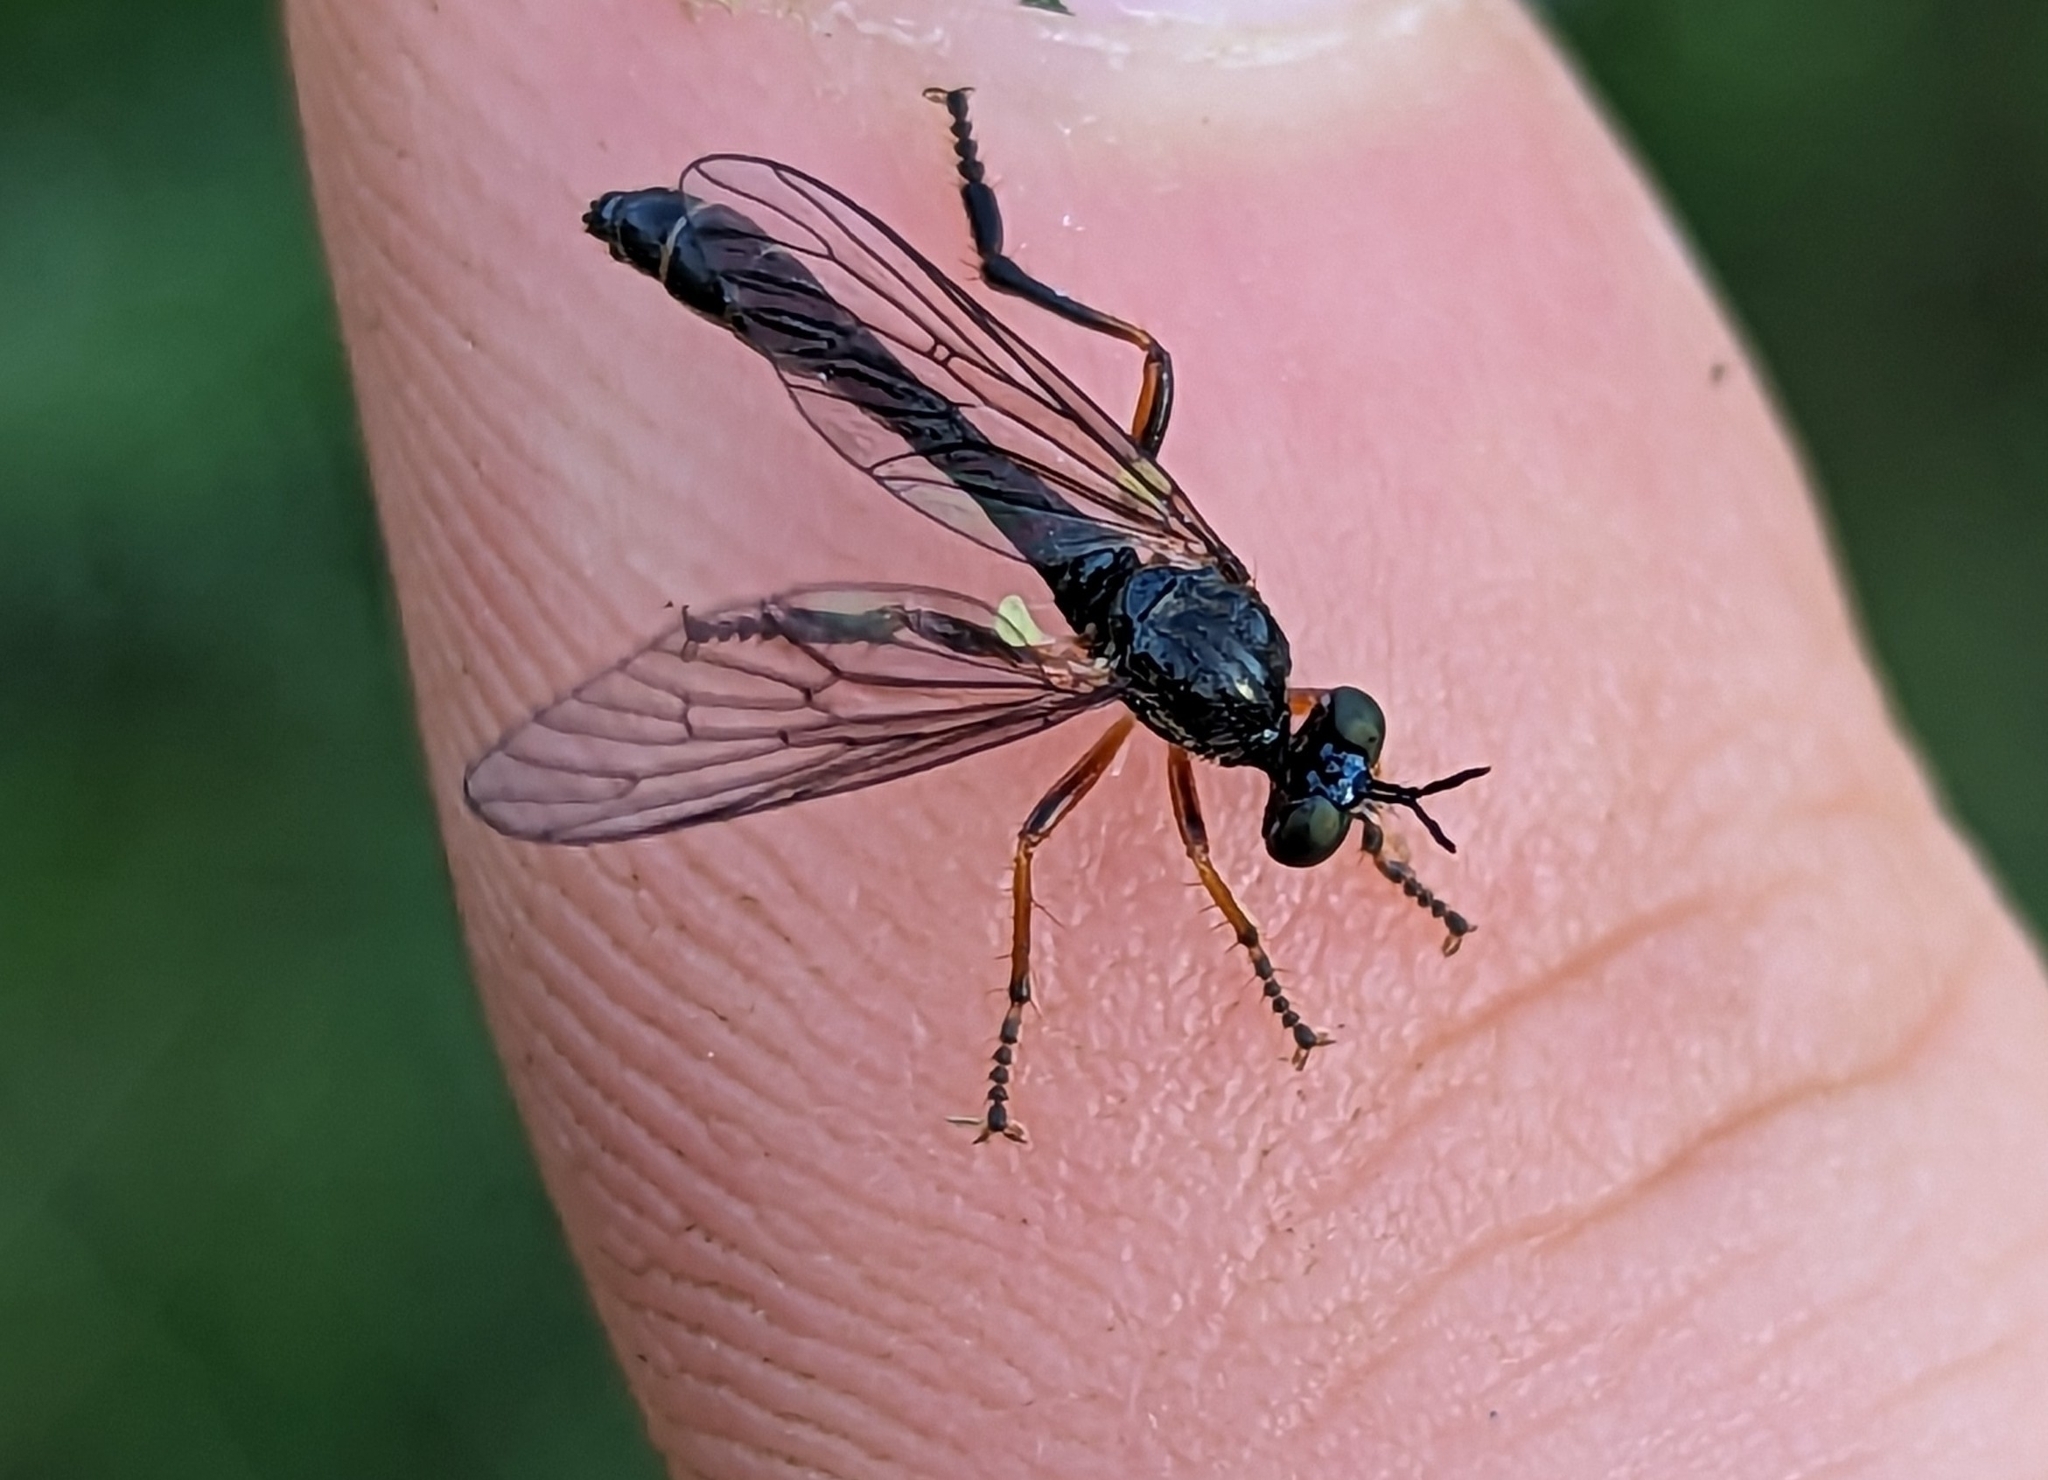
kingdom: Animalia
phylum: Arthropoda
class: Insecta
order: Diptera
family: Asilidae
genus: Dioctria
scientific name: Dioctria hyalipennis
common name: Stripe-legged robberfly
